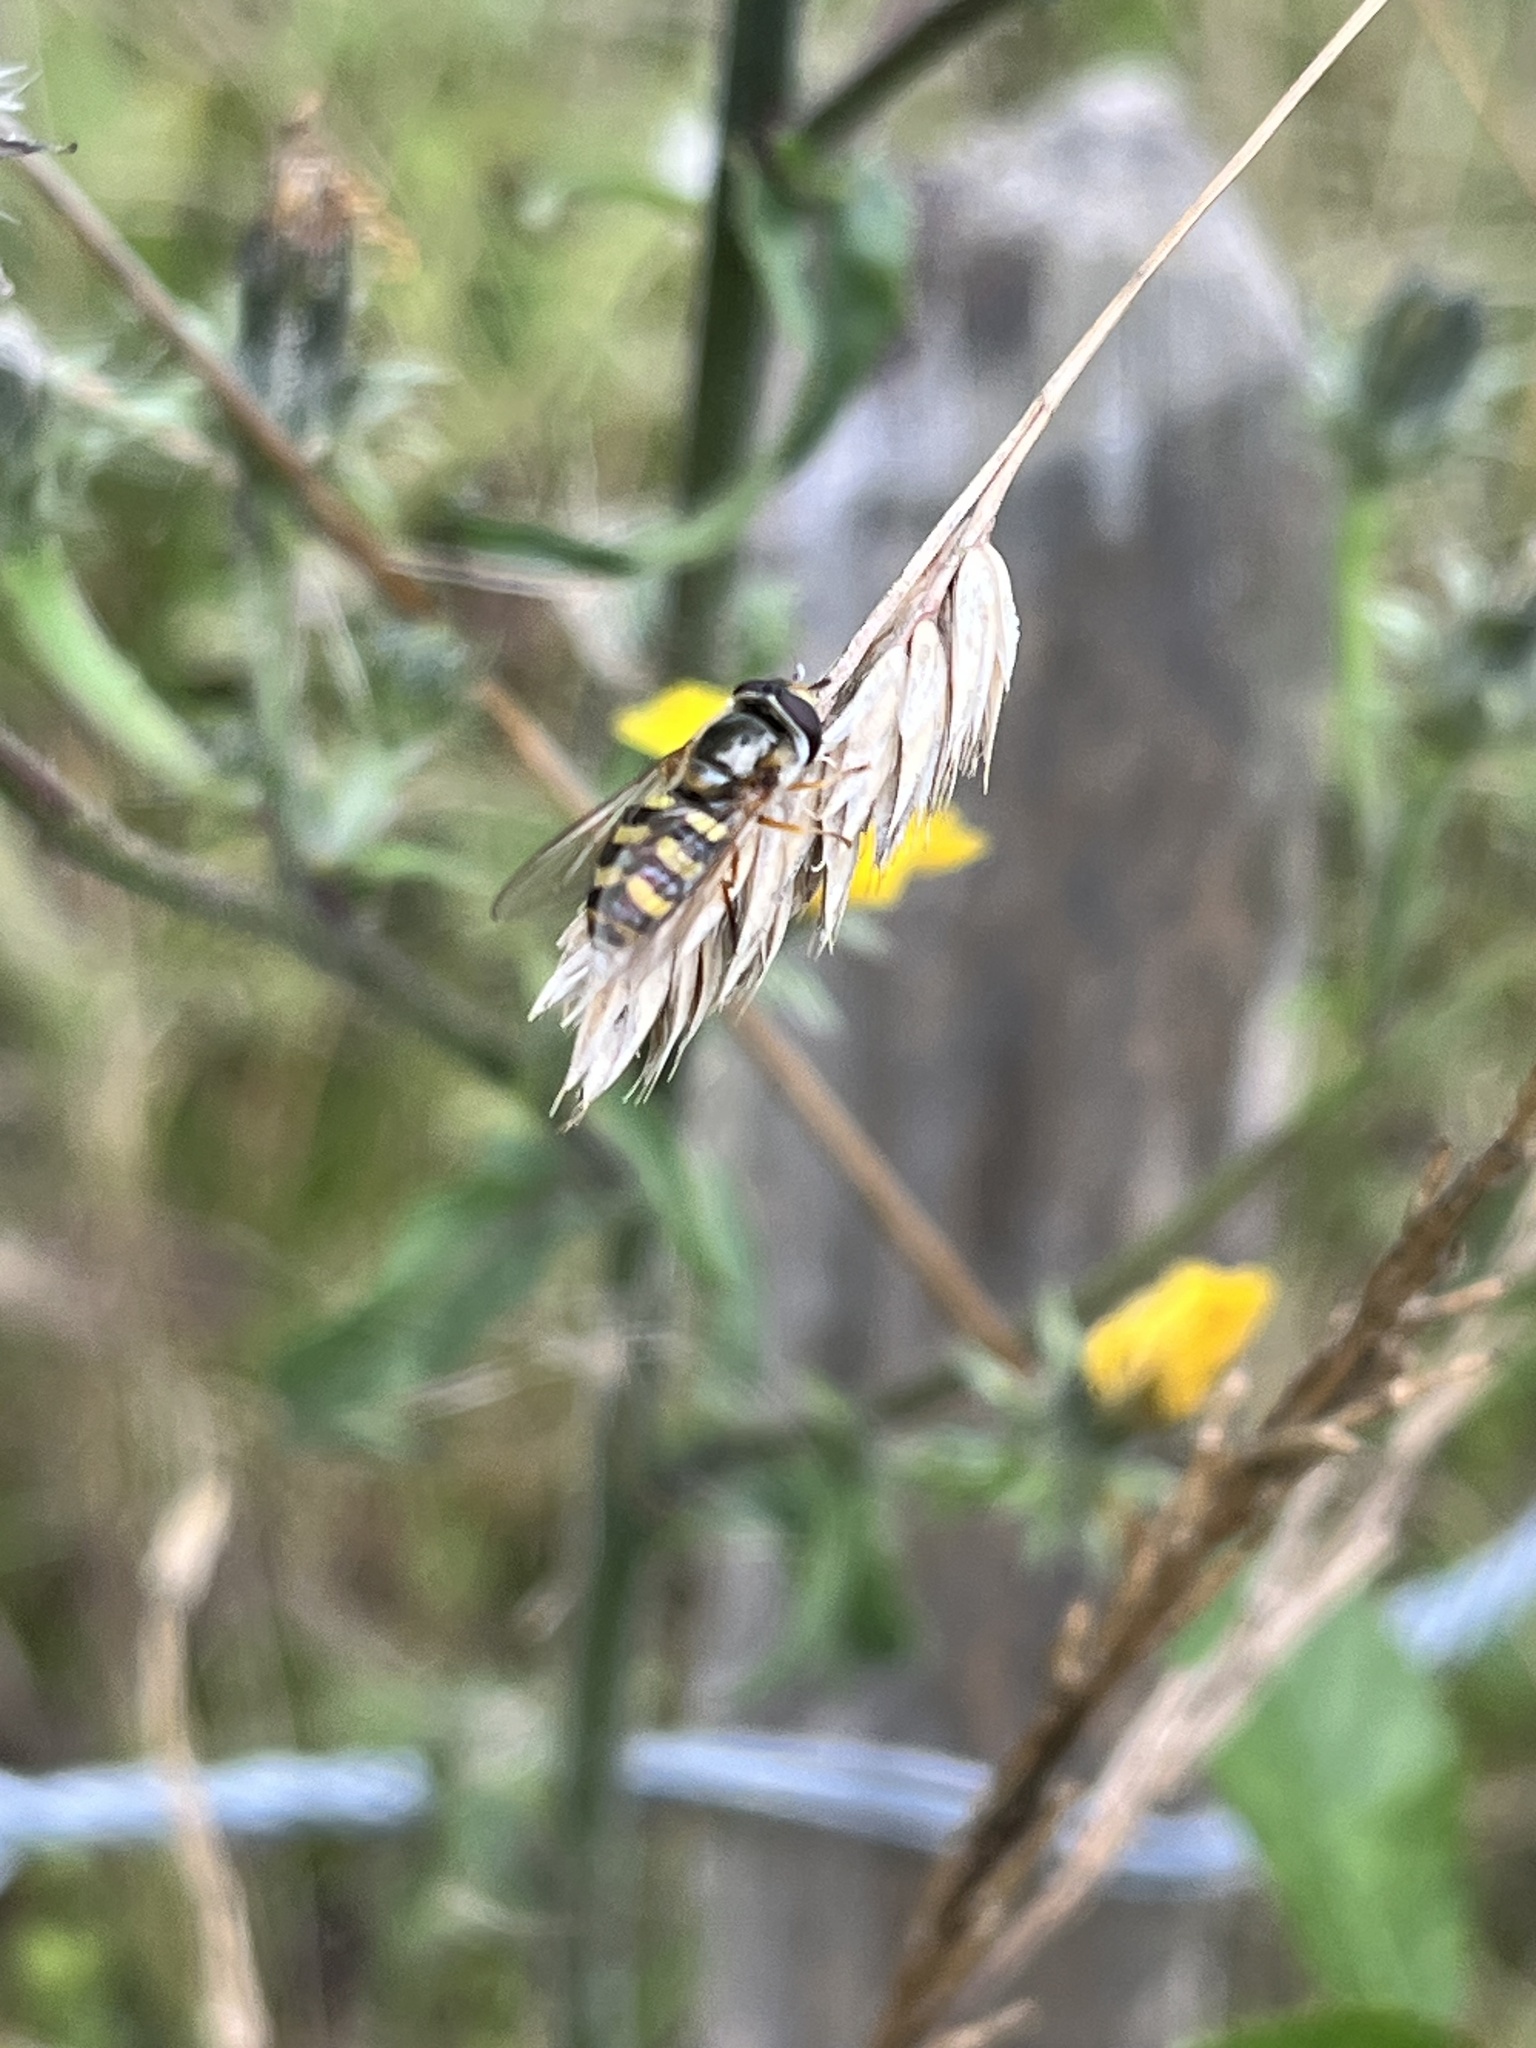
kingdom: Animalia
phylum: Arthropoda
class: Insecta
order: Diptera
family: Syrphidae
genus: Eupeodes
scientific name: Eupeodes
